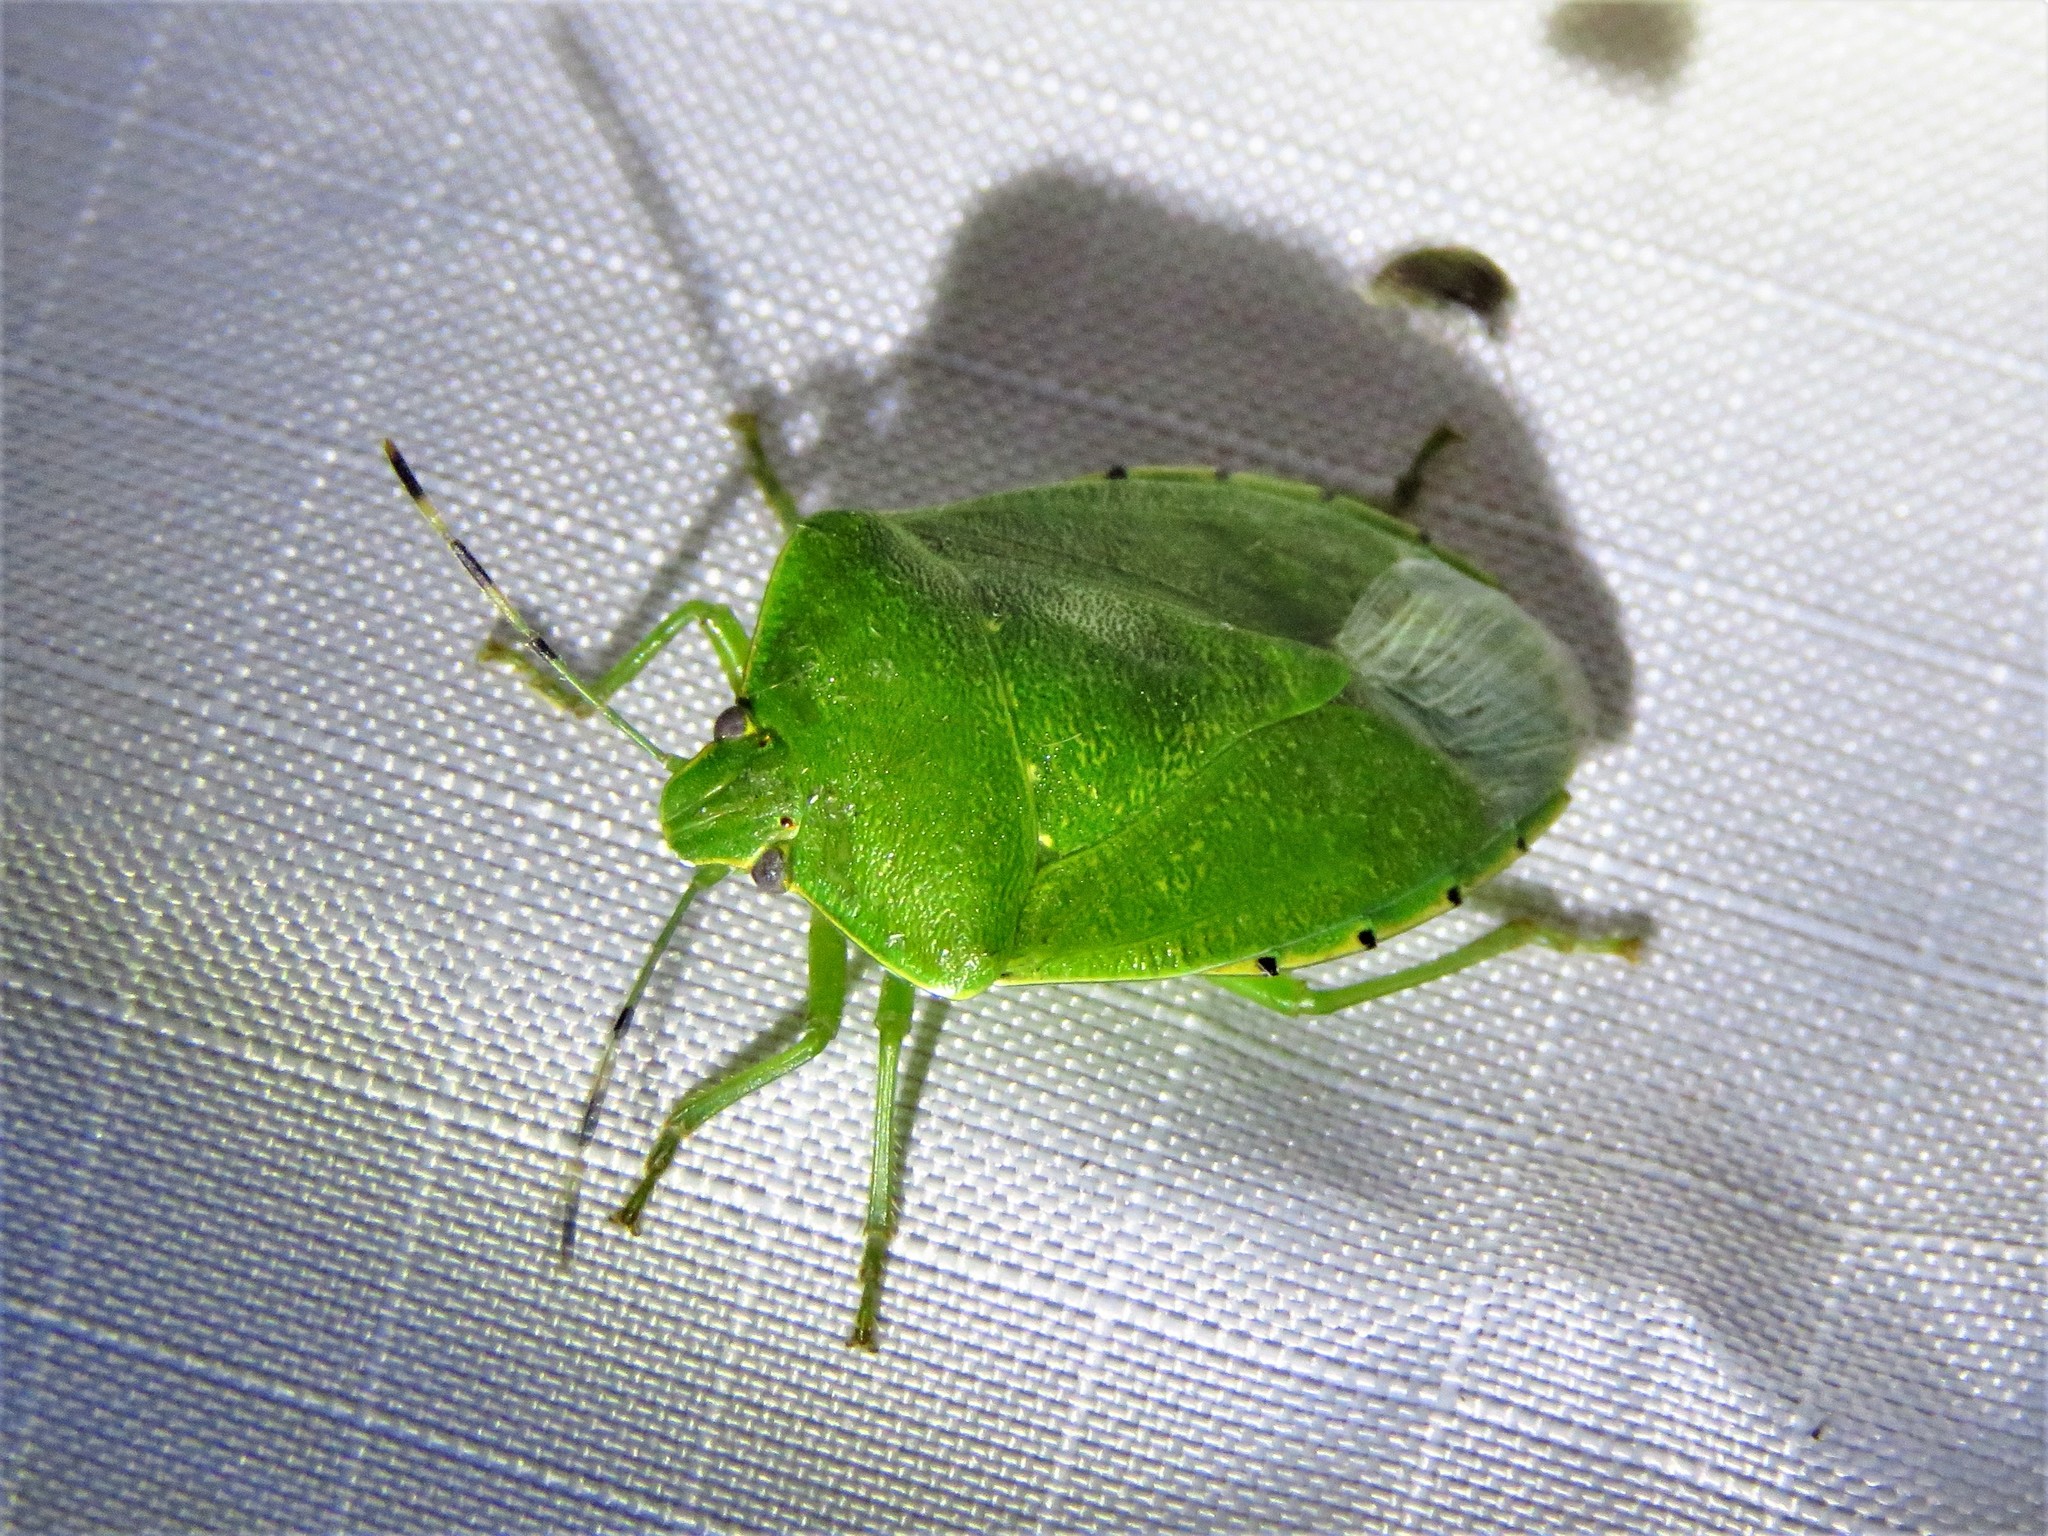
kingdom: Animalia
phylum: Arthropoda
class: Insecta
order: Hemiptera
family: Pentatomidae
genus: Chinavia
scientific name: Chinavia hilaris
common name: Green stink bug
